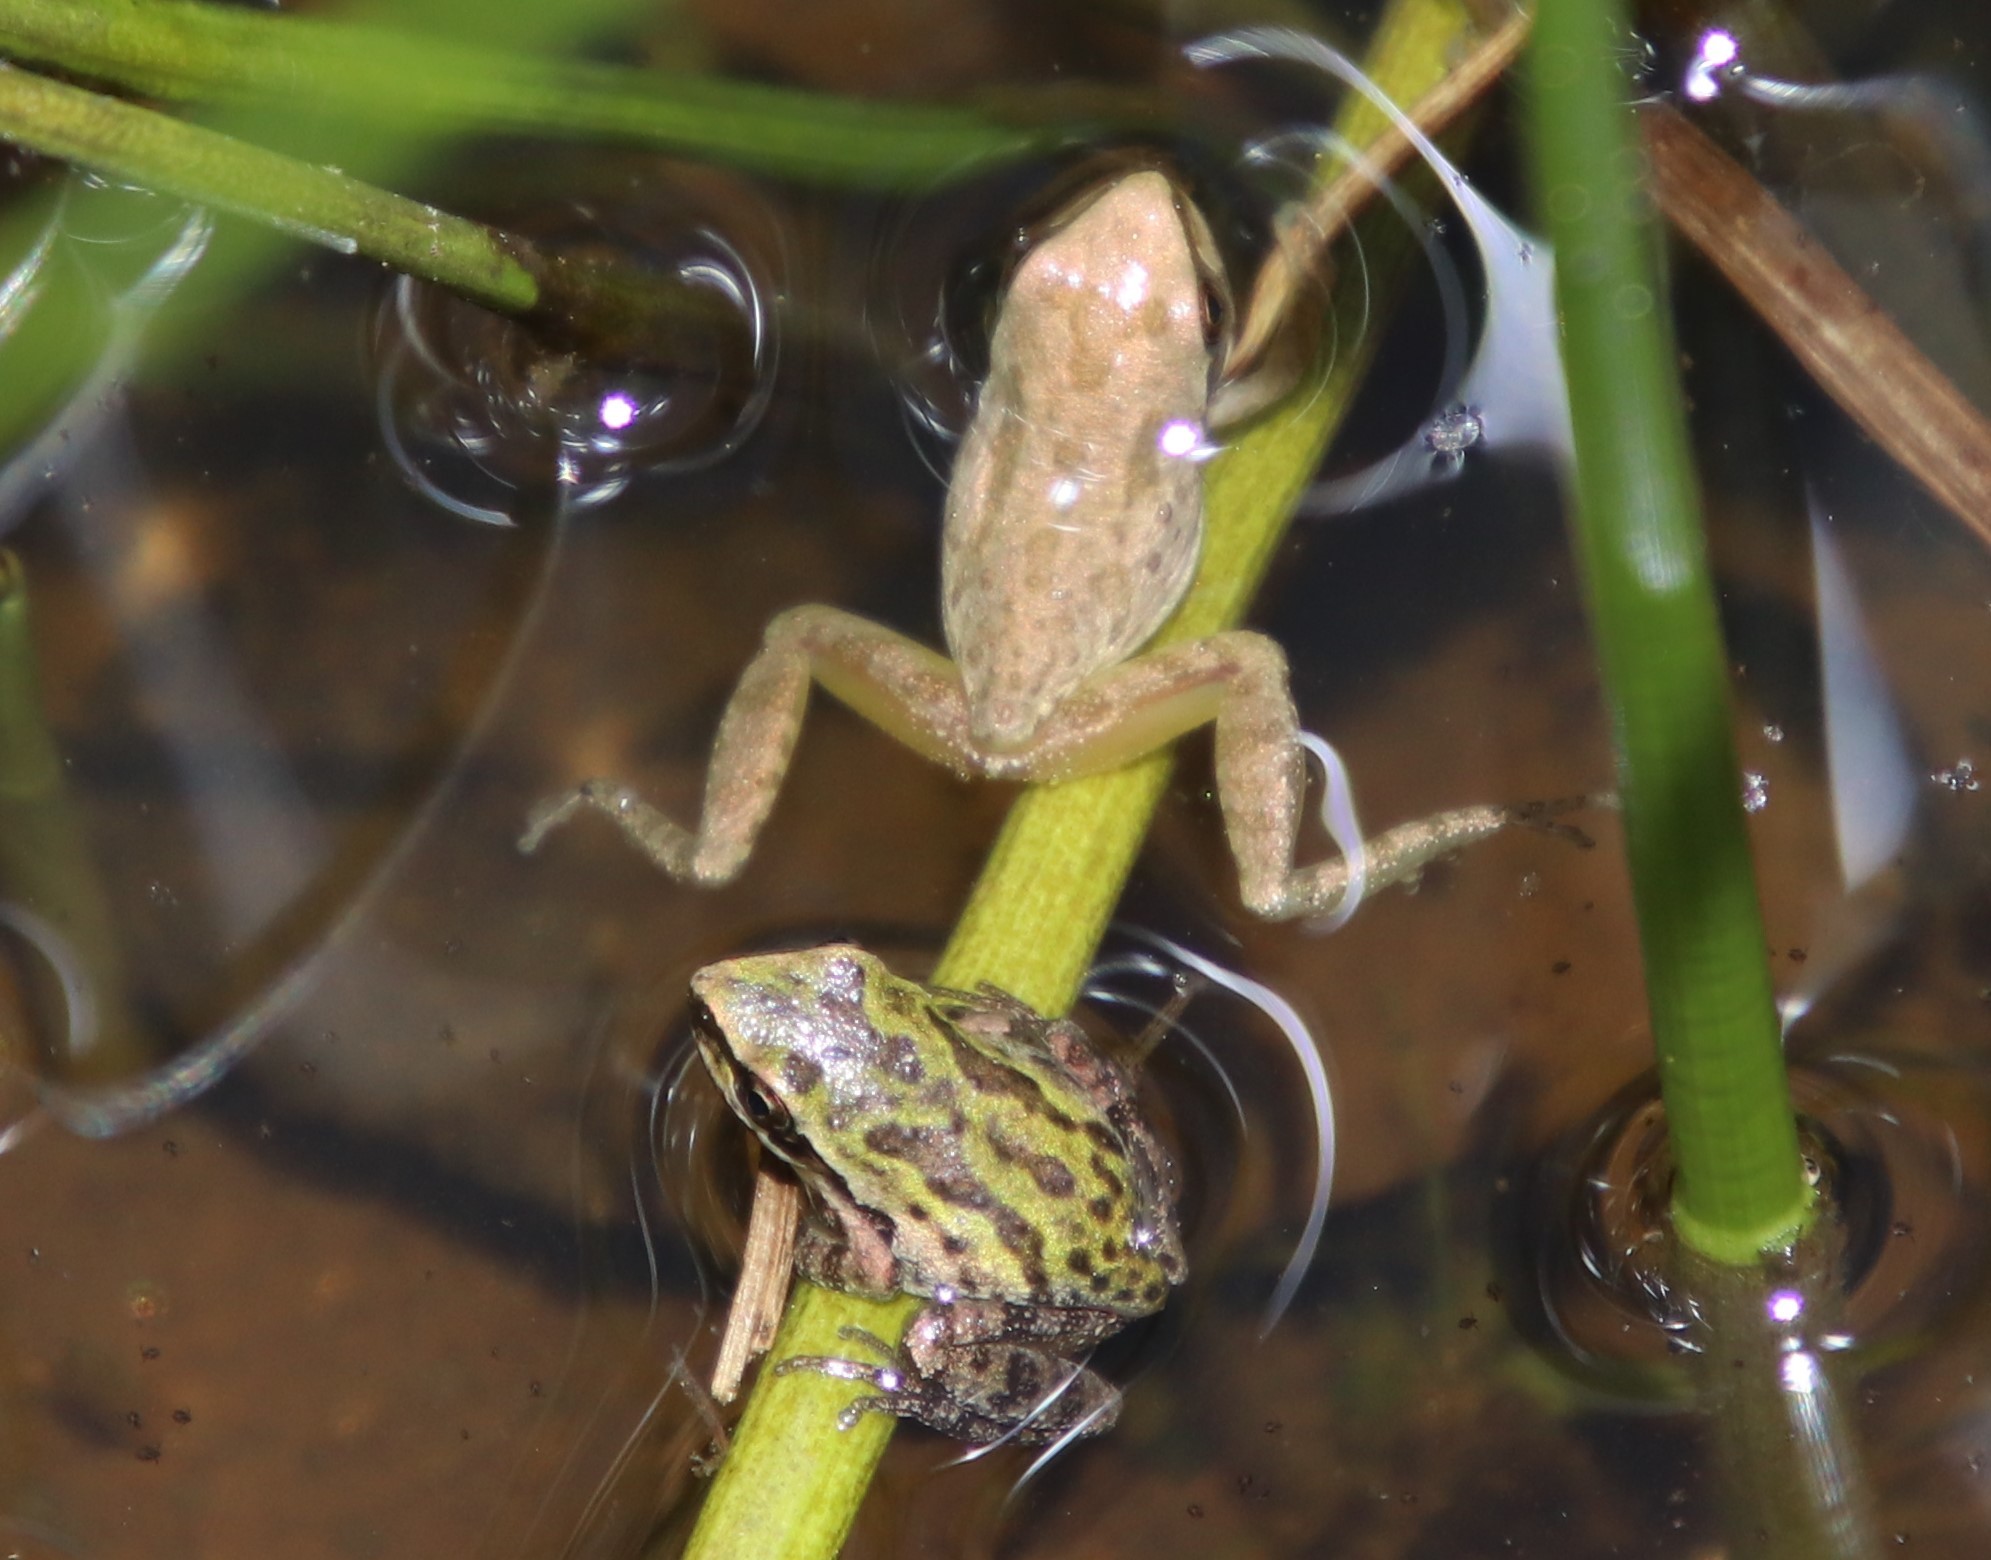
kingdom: Animalia
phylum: Chordata
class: Amphibia
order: Anura
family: Hylidae
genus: Pseudacris
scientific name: Pseudacris regilla
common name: Pacific chorus frog
